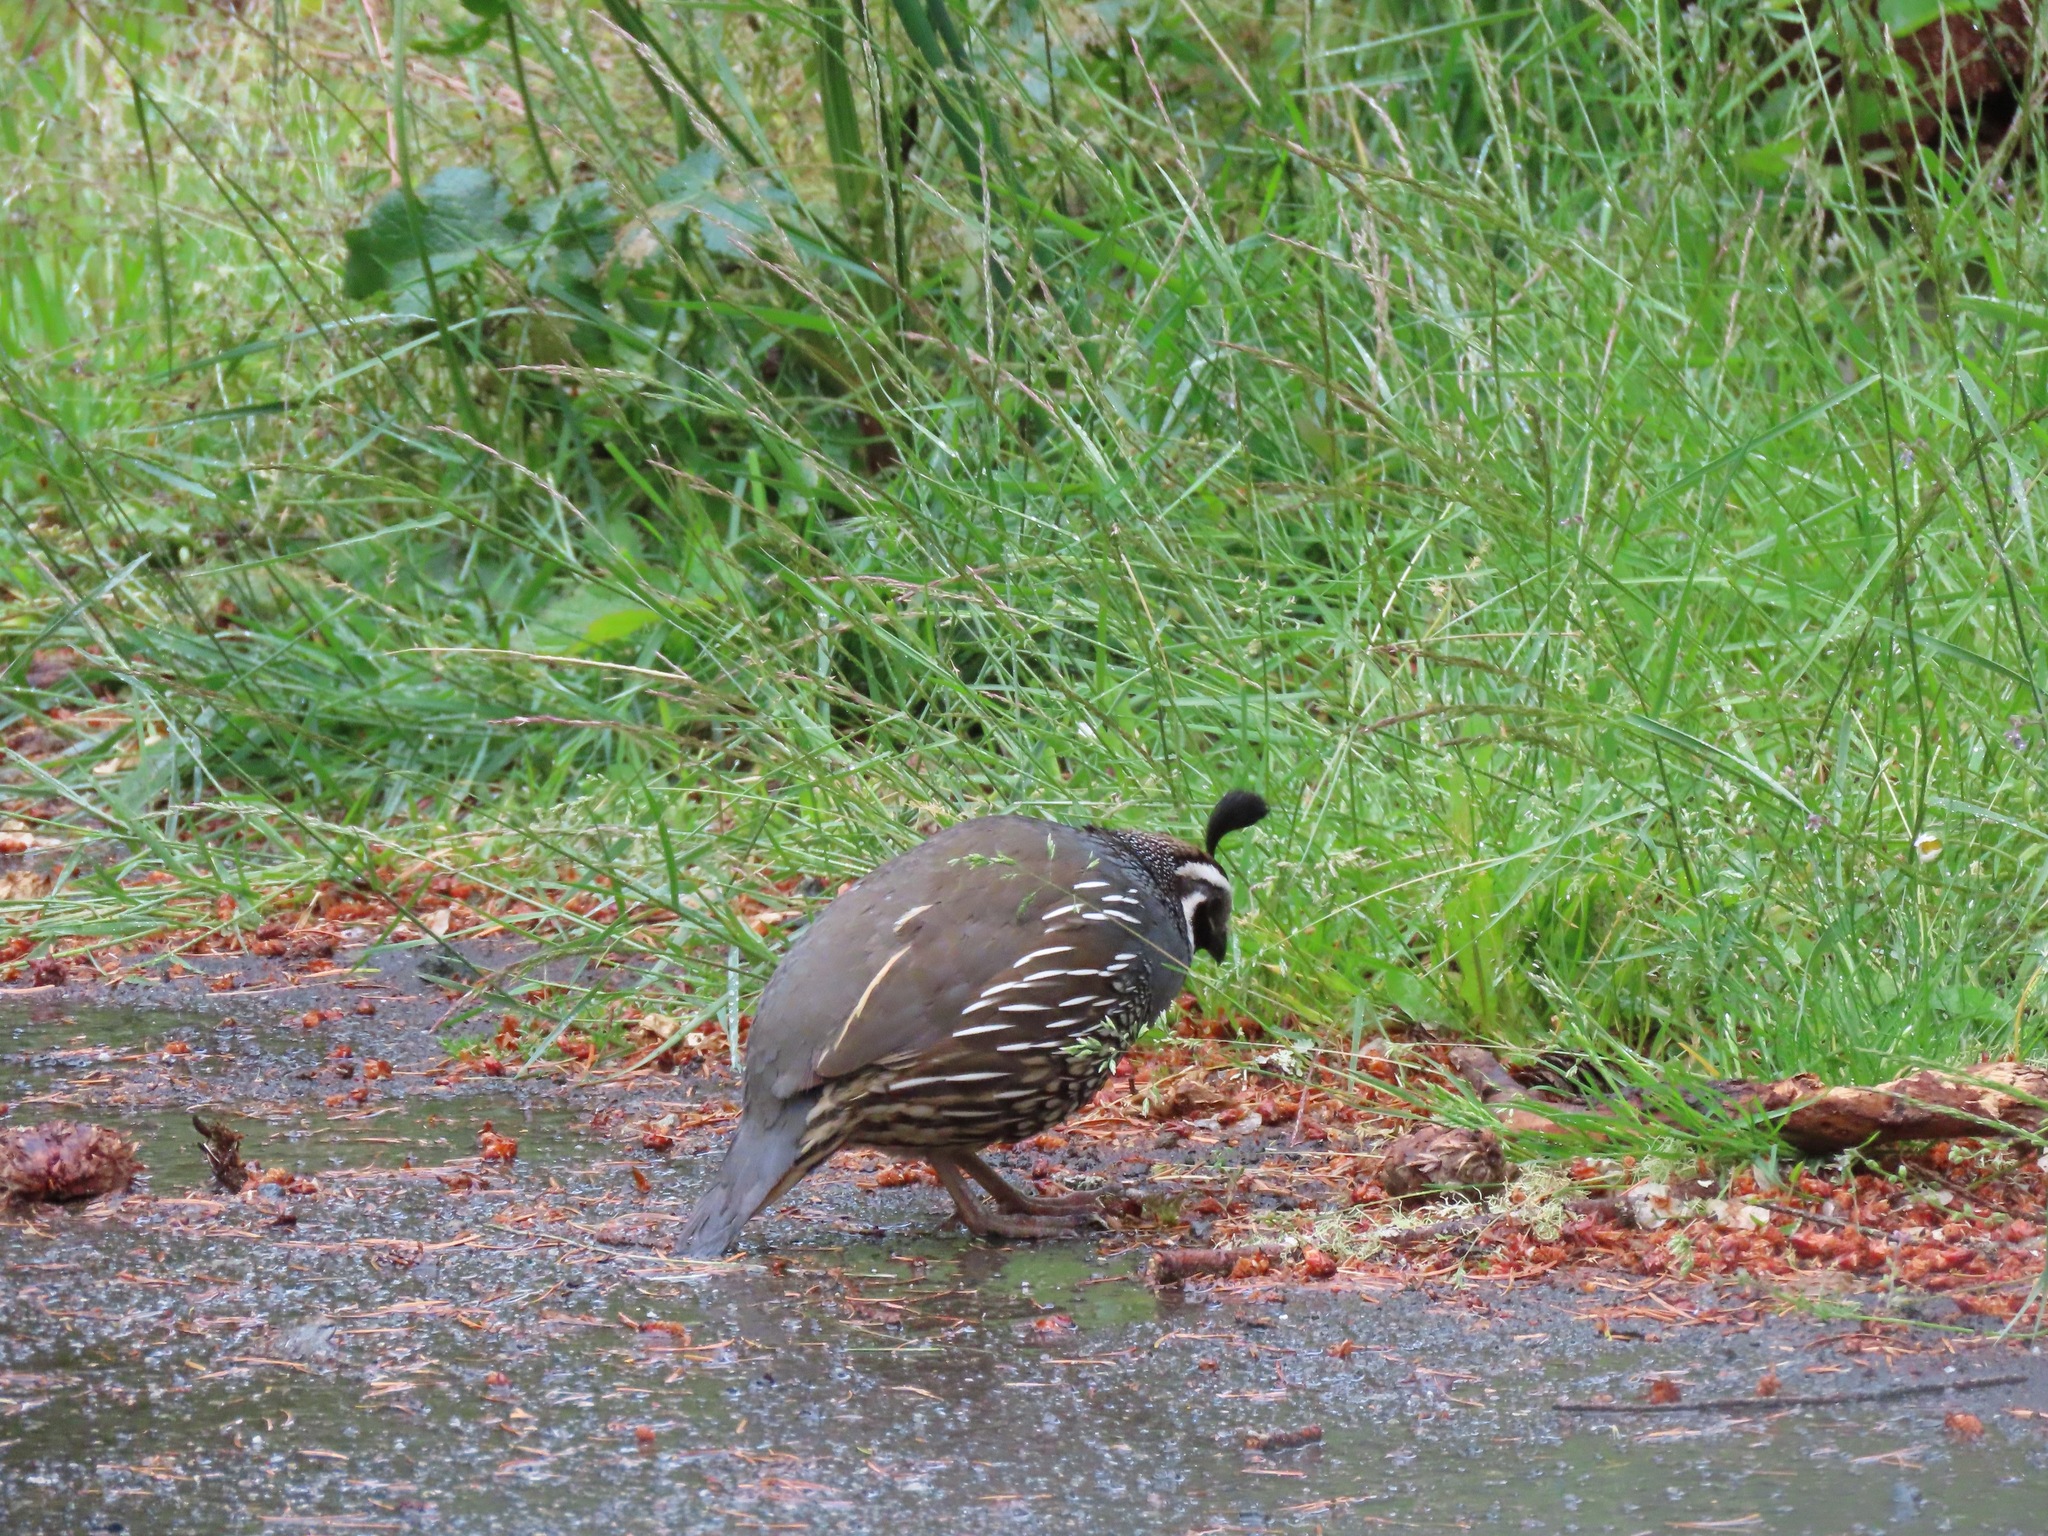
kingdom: Animalia
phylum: Chordata
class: Aves
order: Galliformes
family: Odontophoridae
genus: Callipepla
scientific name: Callipepla californica
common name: California quail
